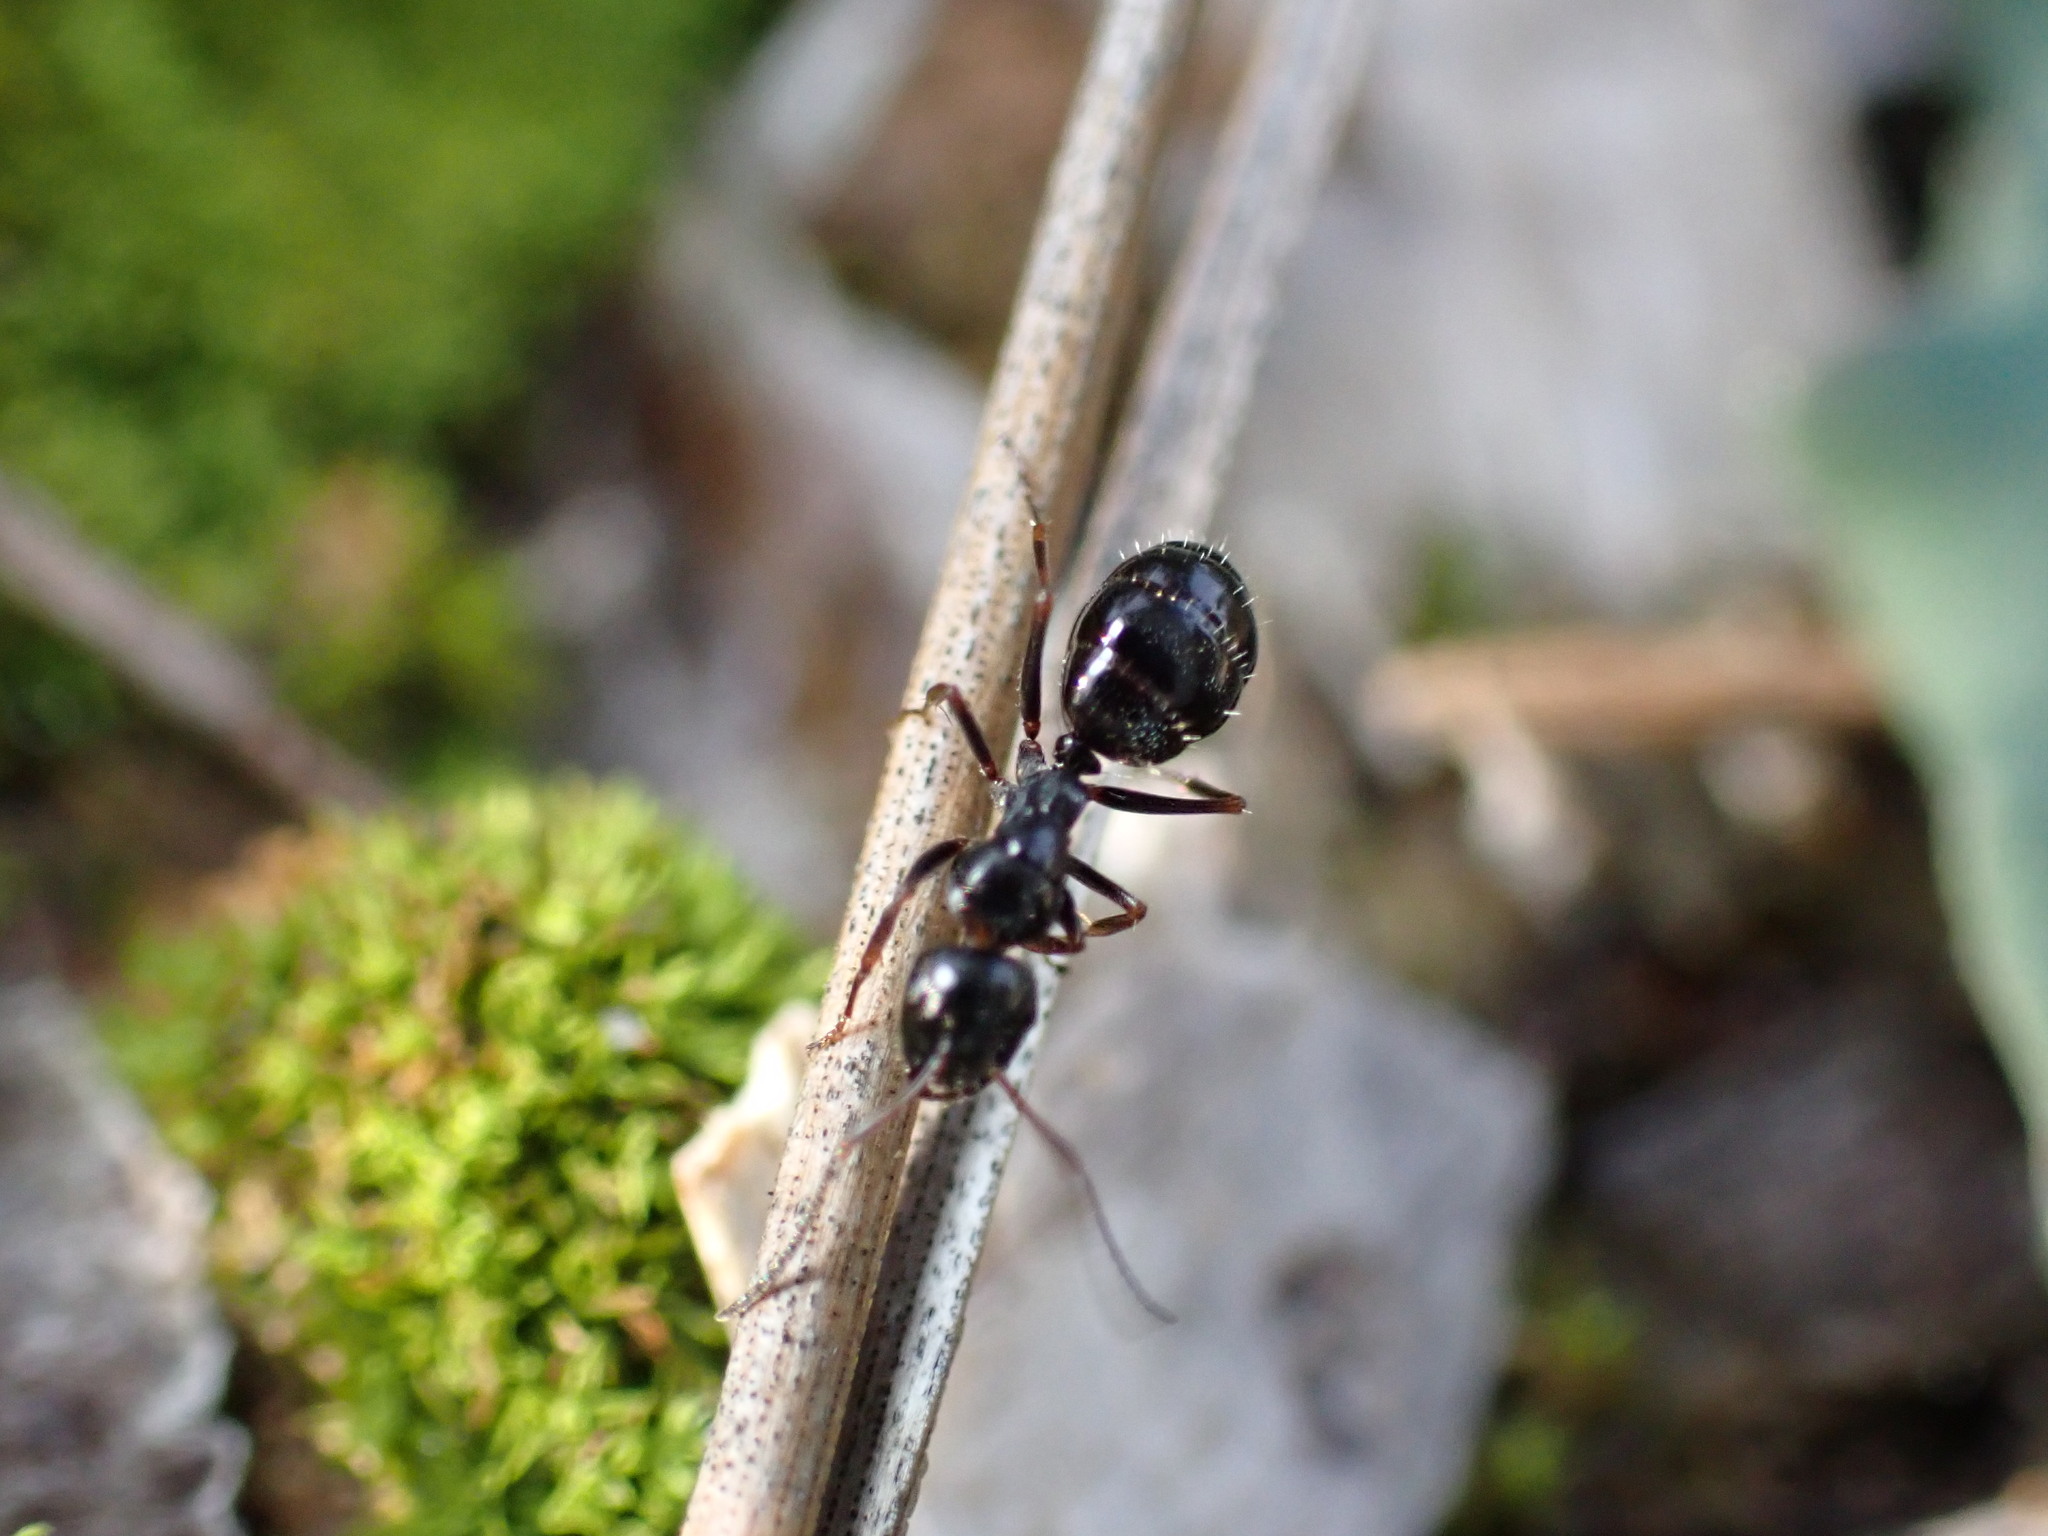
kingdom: Animalia
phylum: Arthropoda
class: Insecta
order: Hymenoptera
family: Formicidae
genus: Camponotus
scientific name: Camponotus piceus
